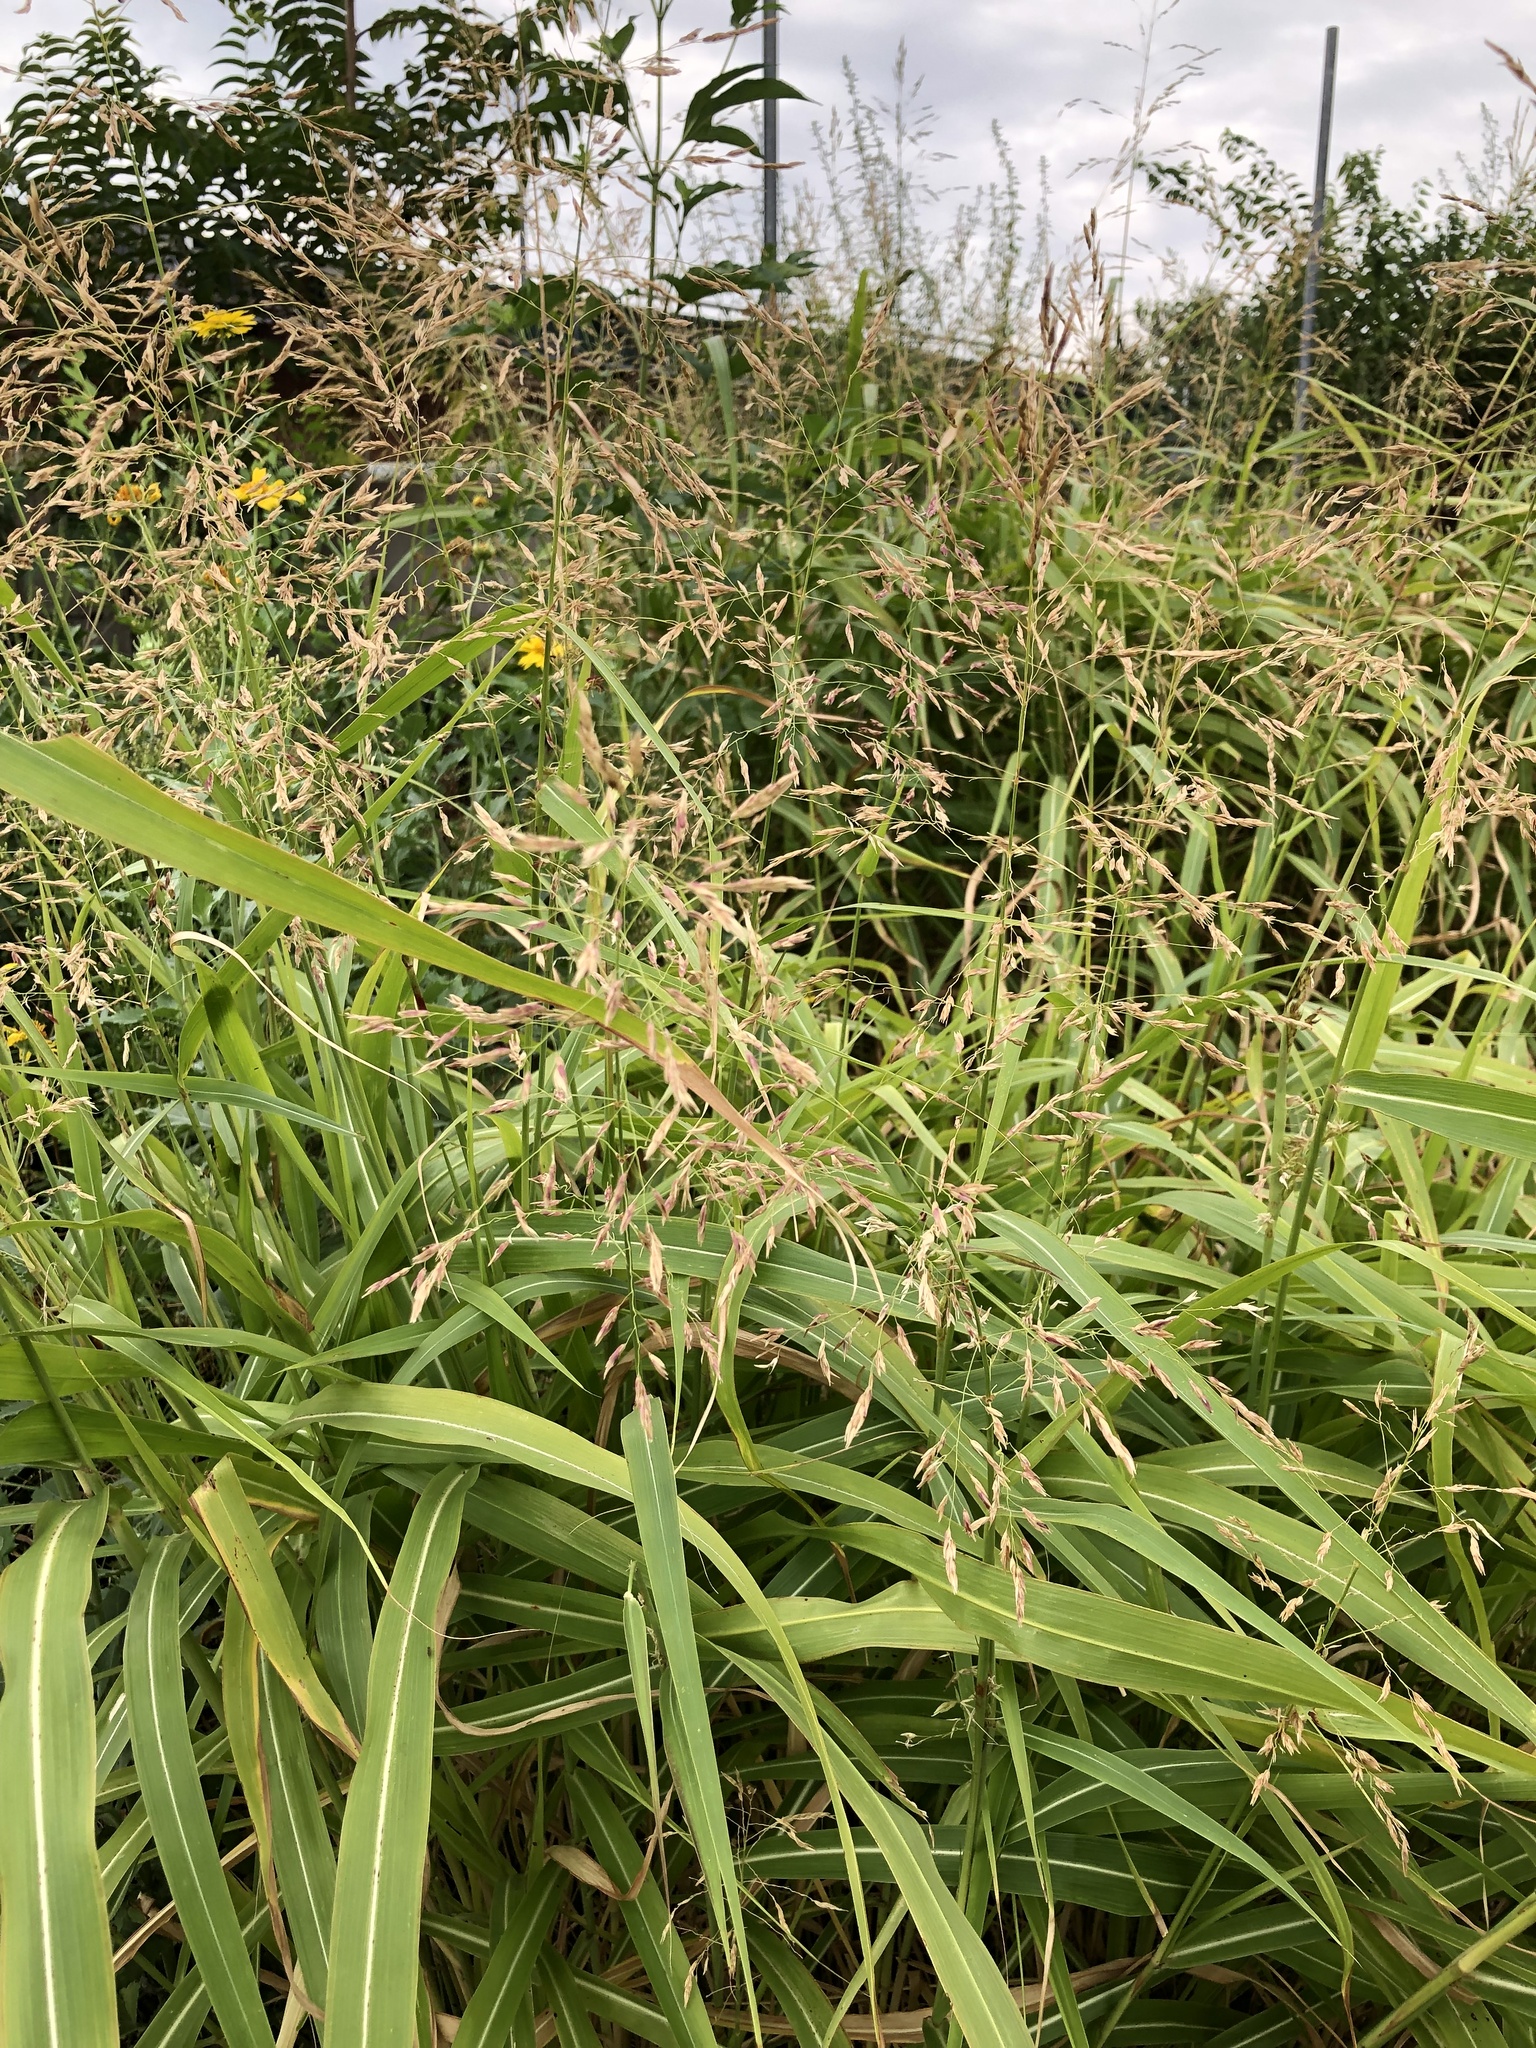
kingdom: Plantae
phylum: Tracheophyta
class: Liliopsida
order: Poales
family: Poaceae
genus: Sorghum
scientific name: Sorghum halepense
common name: Johnson-grass
